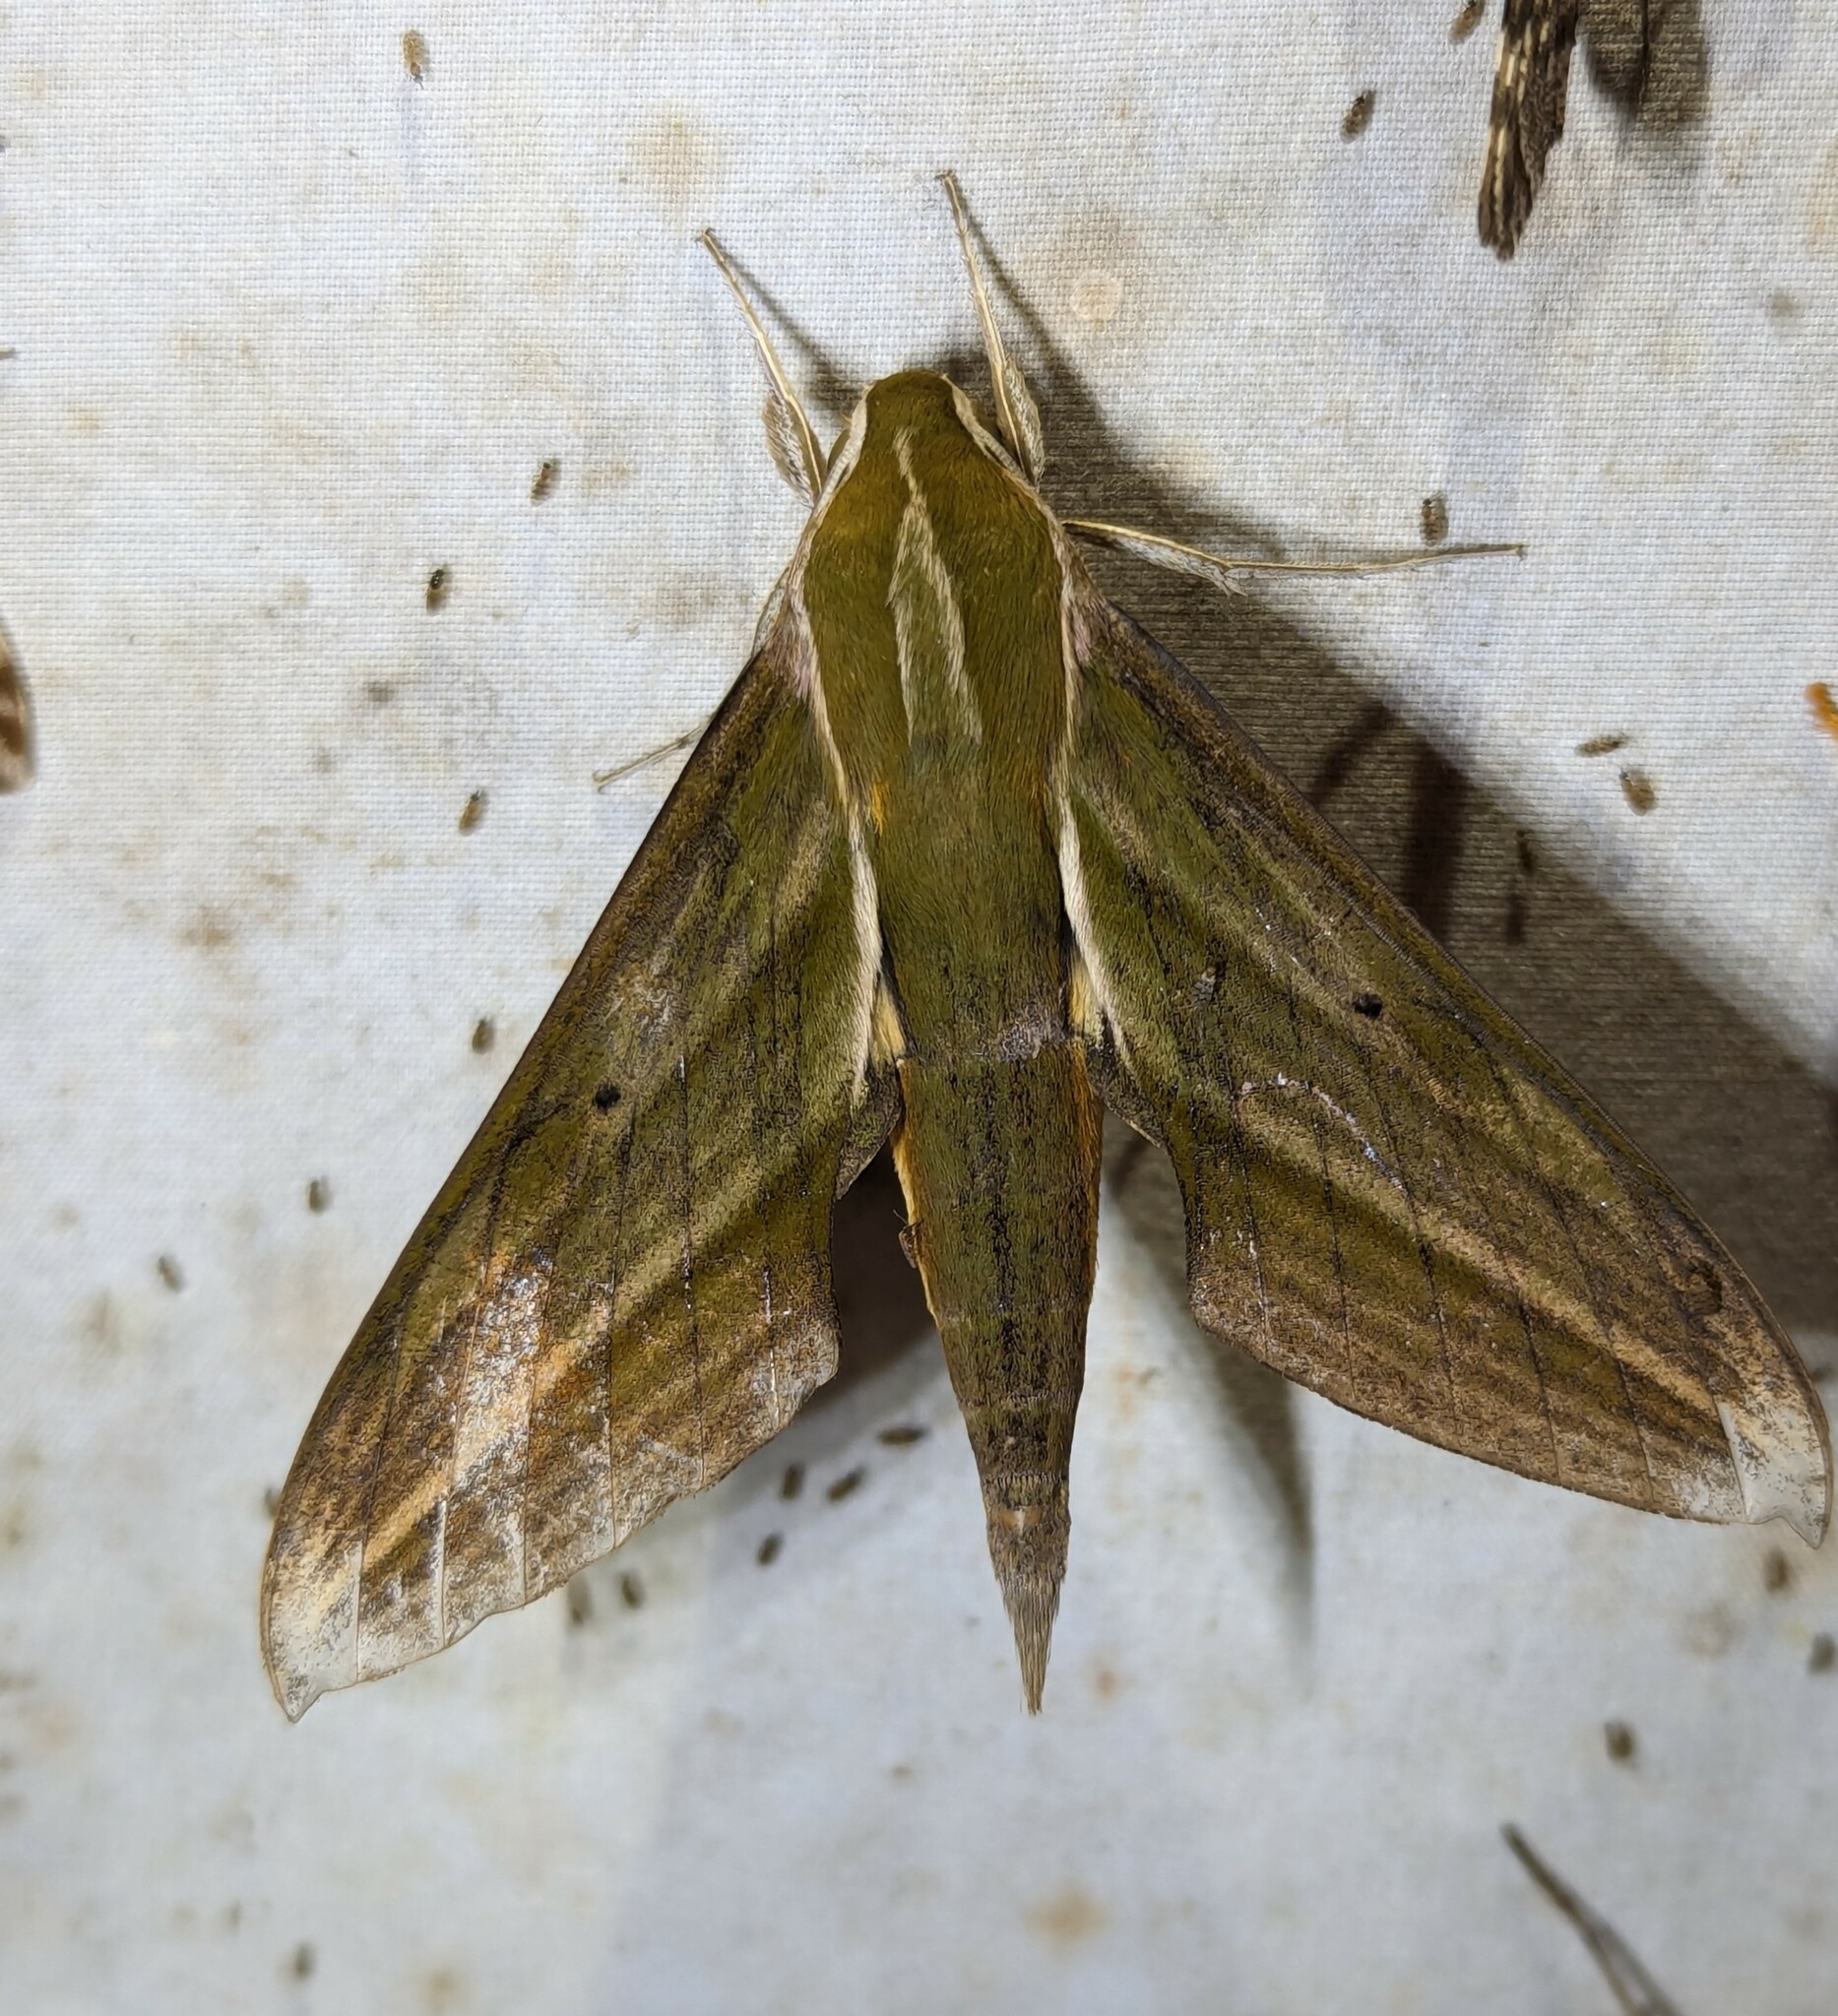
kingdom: Animalia
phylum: Arthropoda
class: Insecta
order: Lepidoptera
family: Sphingidae
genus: Xylophanes
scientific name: Xylophanes crotonis
